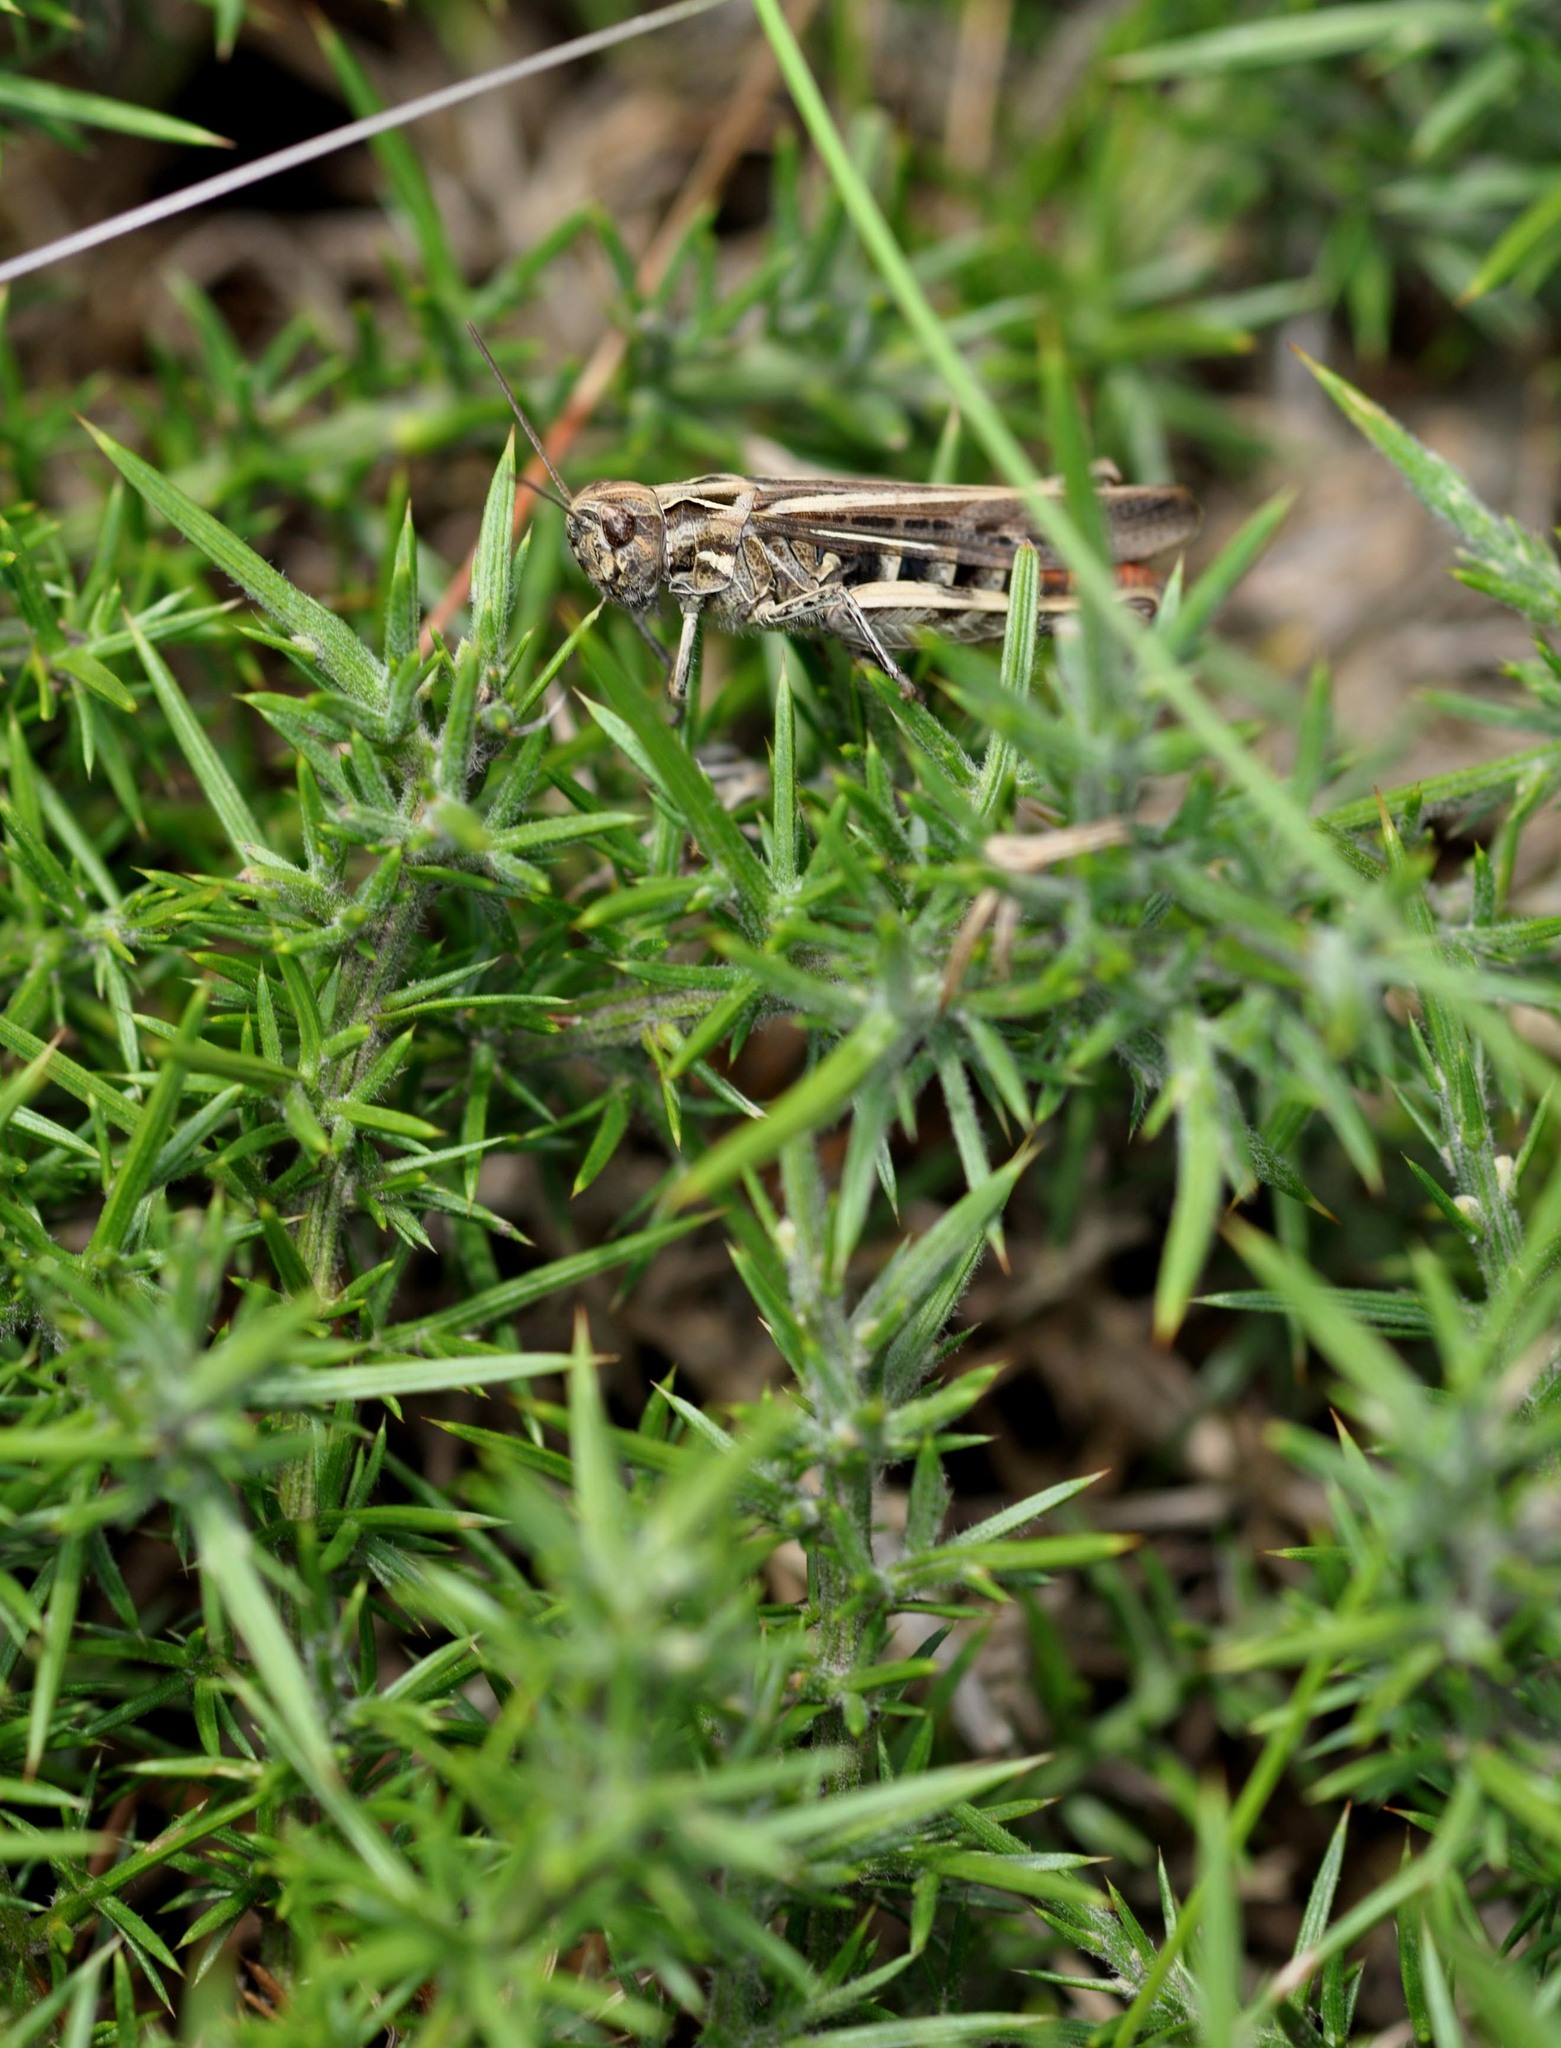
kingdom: Animalia
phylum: Arthropoda
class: Insecta
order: Orthoptera
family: Acrididae
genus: Chorthippus
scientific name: Chorthippus brunneus
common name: Field grasshopper
